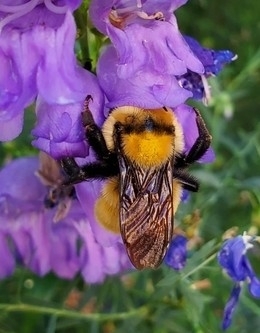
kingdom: Animalia
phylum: Arthropoda
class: Insecta
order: Hymenoptera
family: Apidae
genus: Bombus
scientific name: Bombus fervidus
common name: Yellow bumble bee
